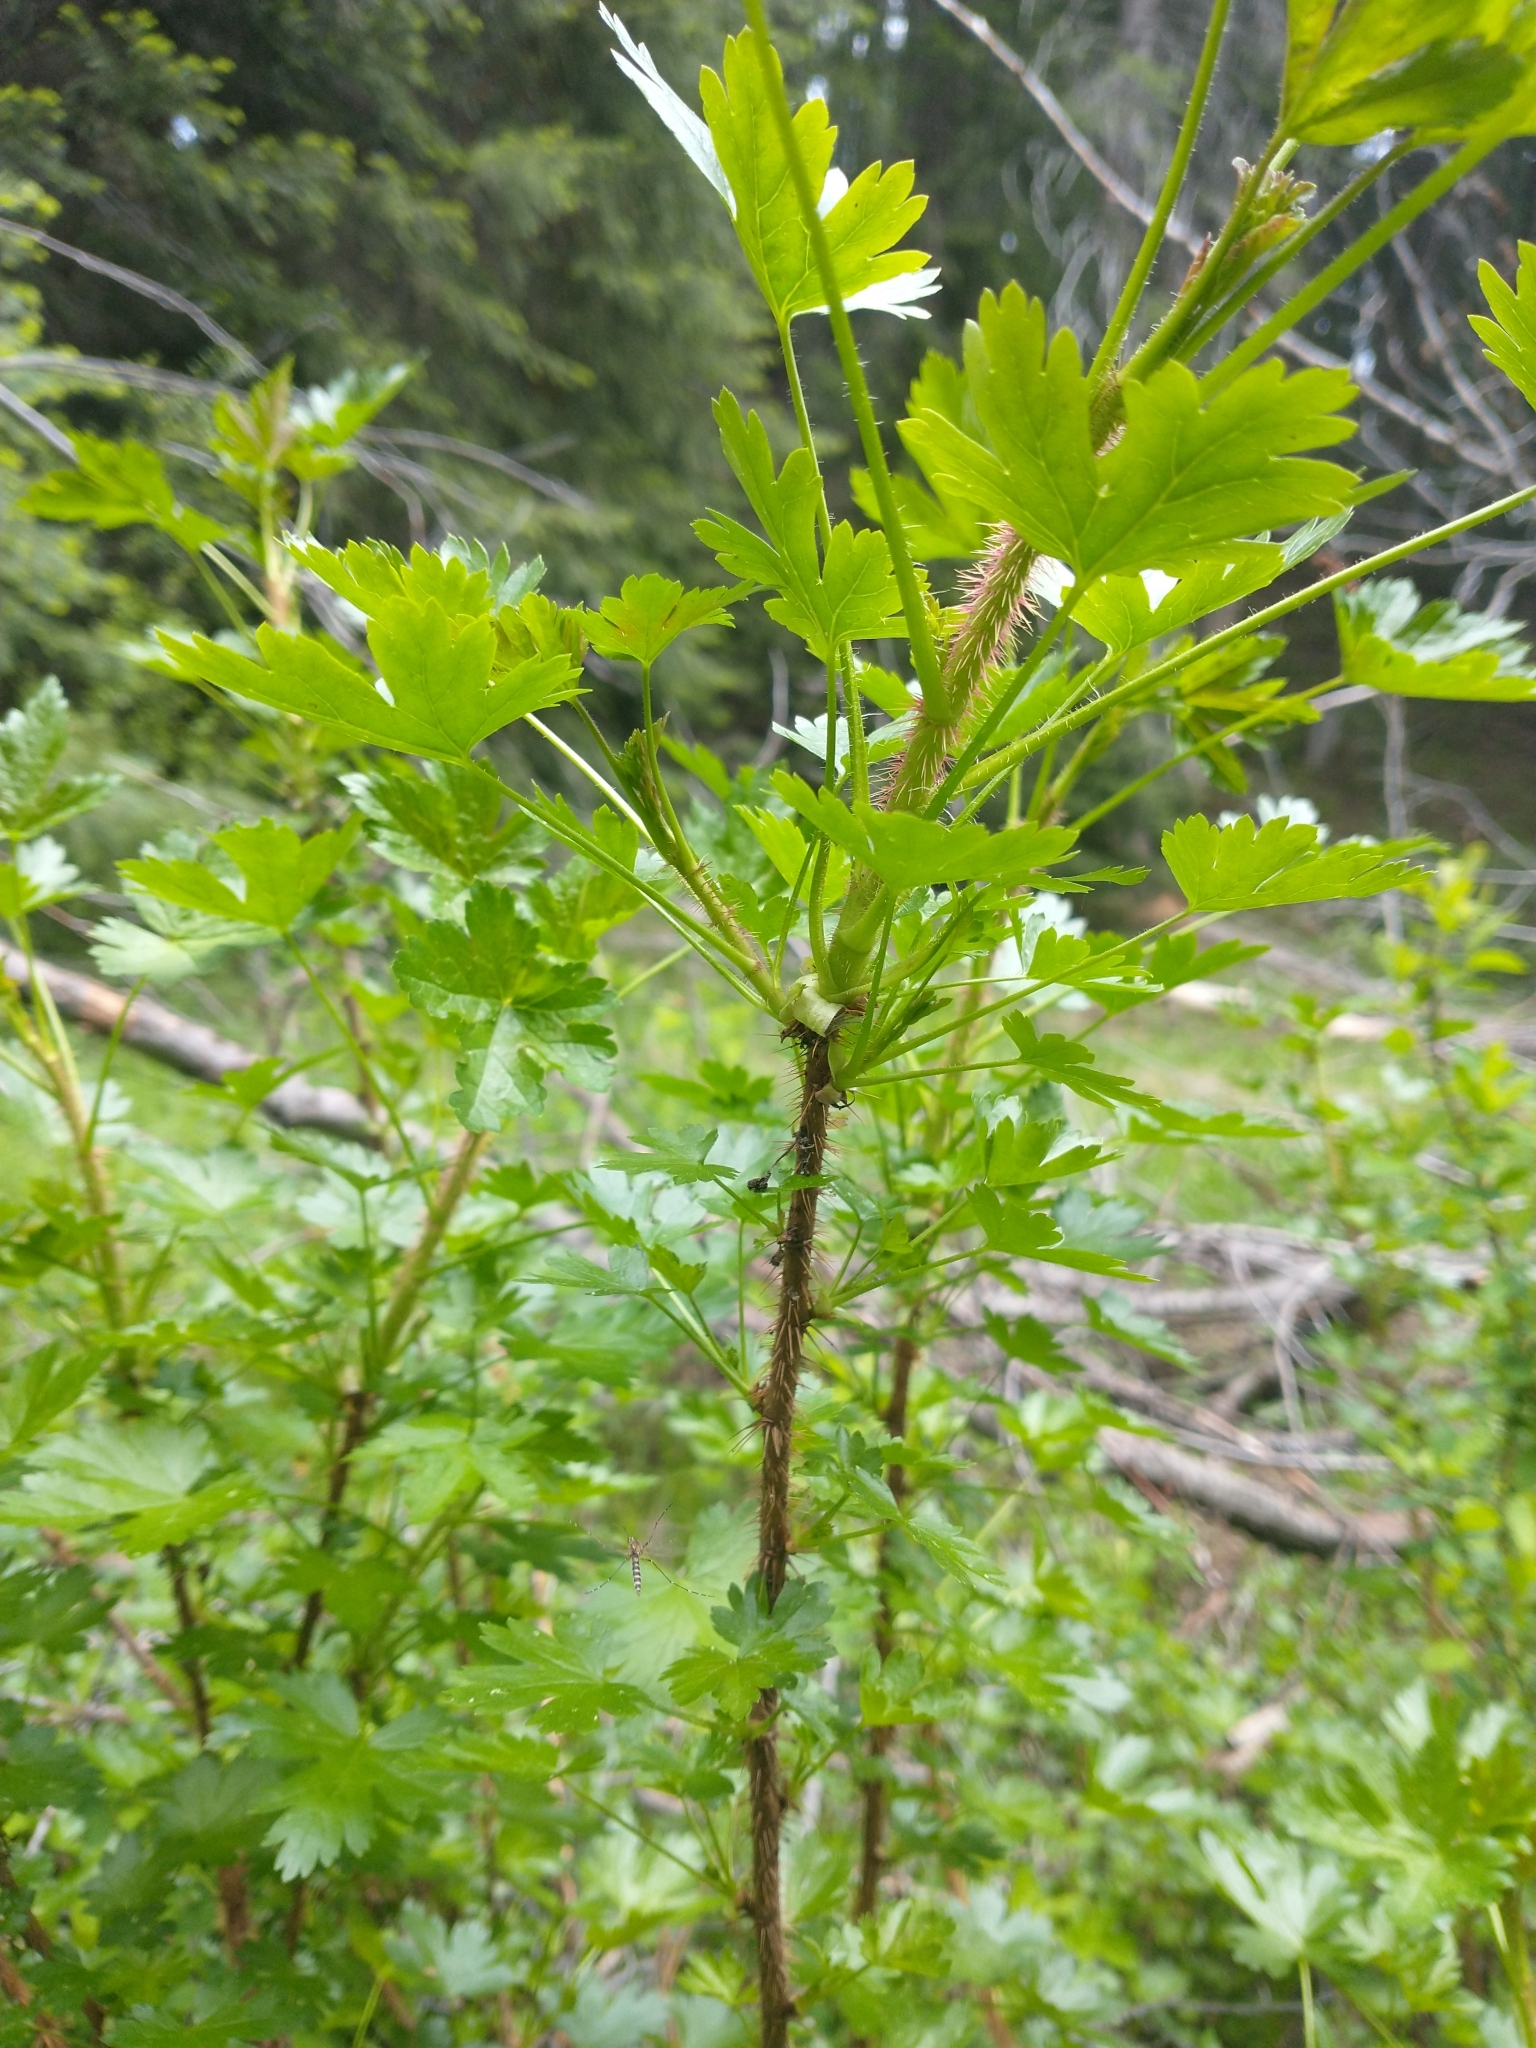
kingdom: Plantae
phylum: Tracheophyta
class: Magnoliopsida
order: Saxifragales
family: Grossulariaceae
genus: Ribes
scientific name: Ribes lacustre
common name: Black gooseberry
